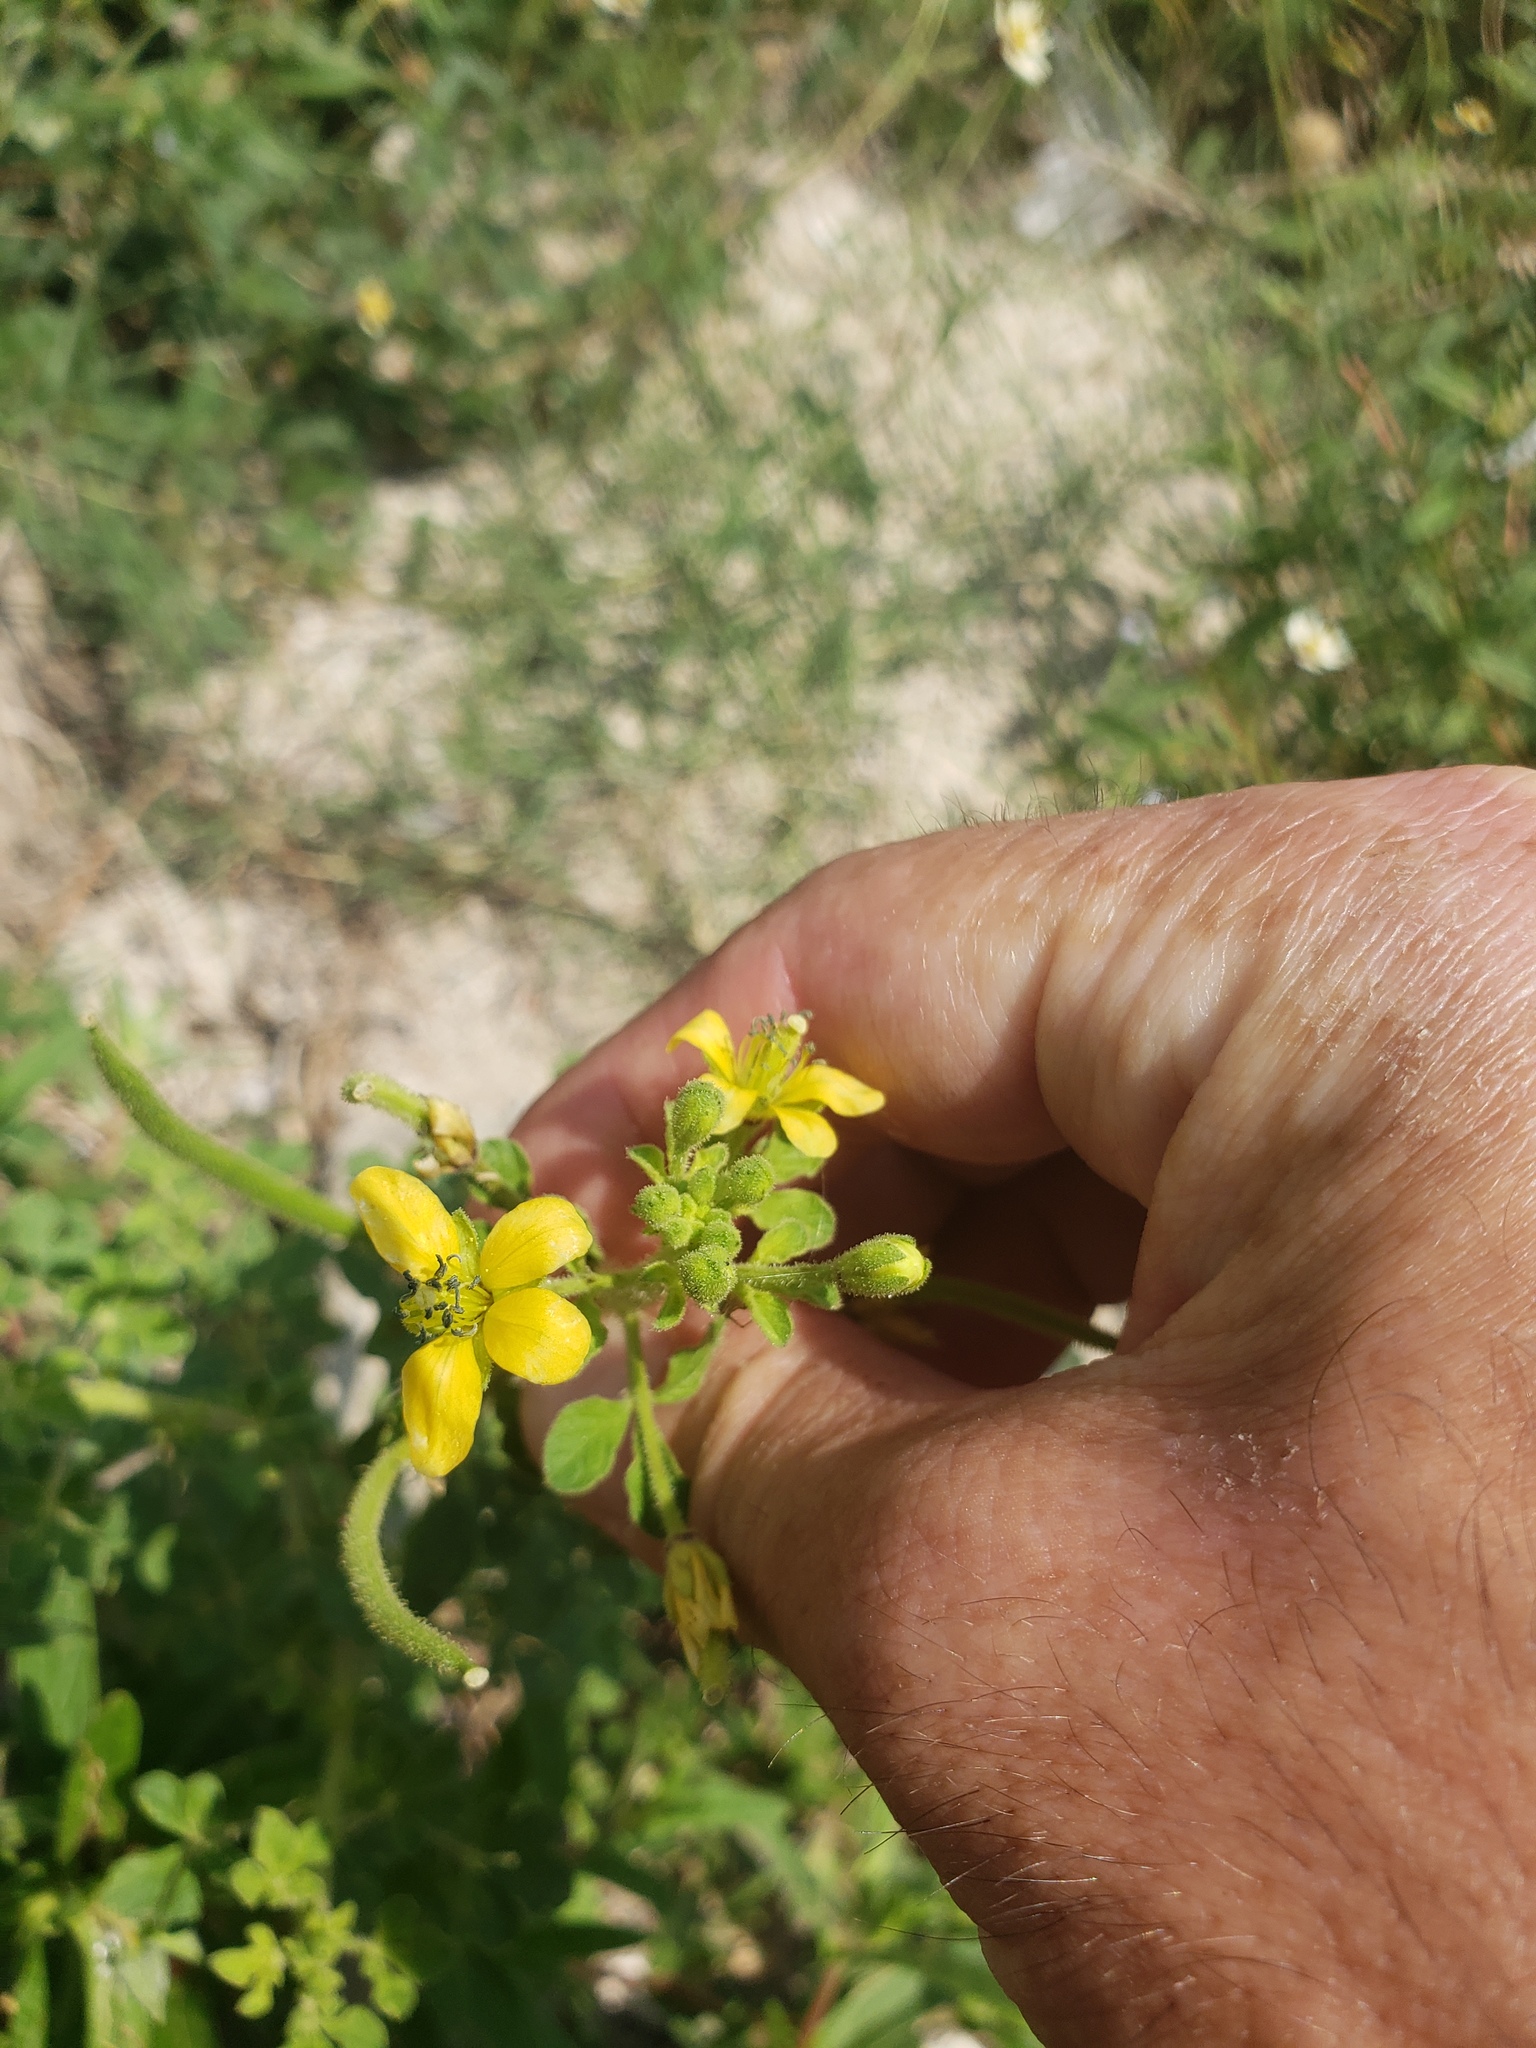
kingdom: Plantae
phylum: Tracheophyta
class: Magnoliopsida
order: Brassicales
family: Cleomaceae
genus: Arivela
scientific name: Arivela viscosa
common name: Asian spiderflower
